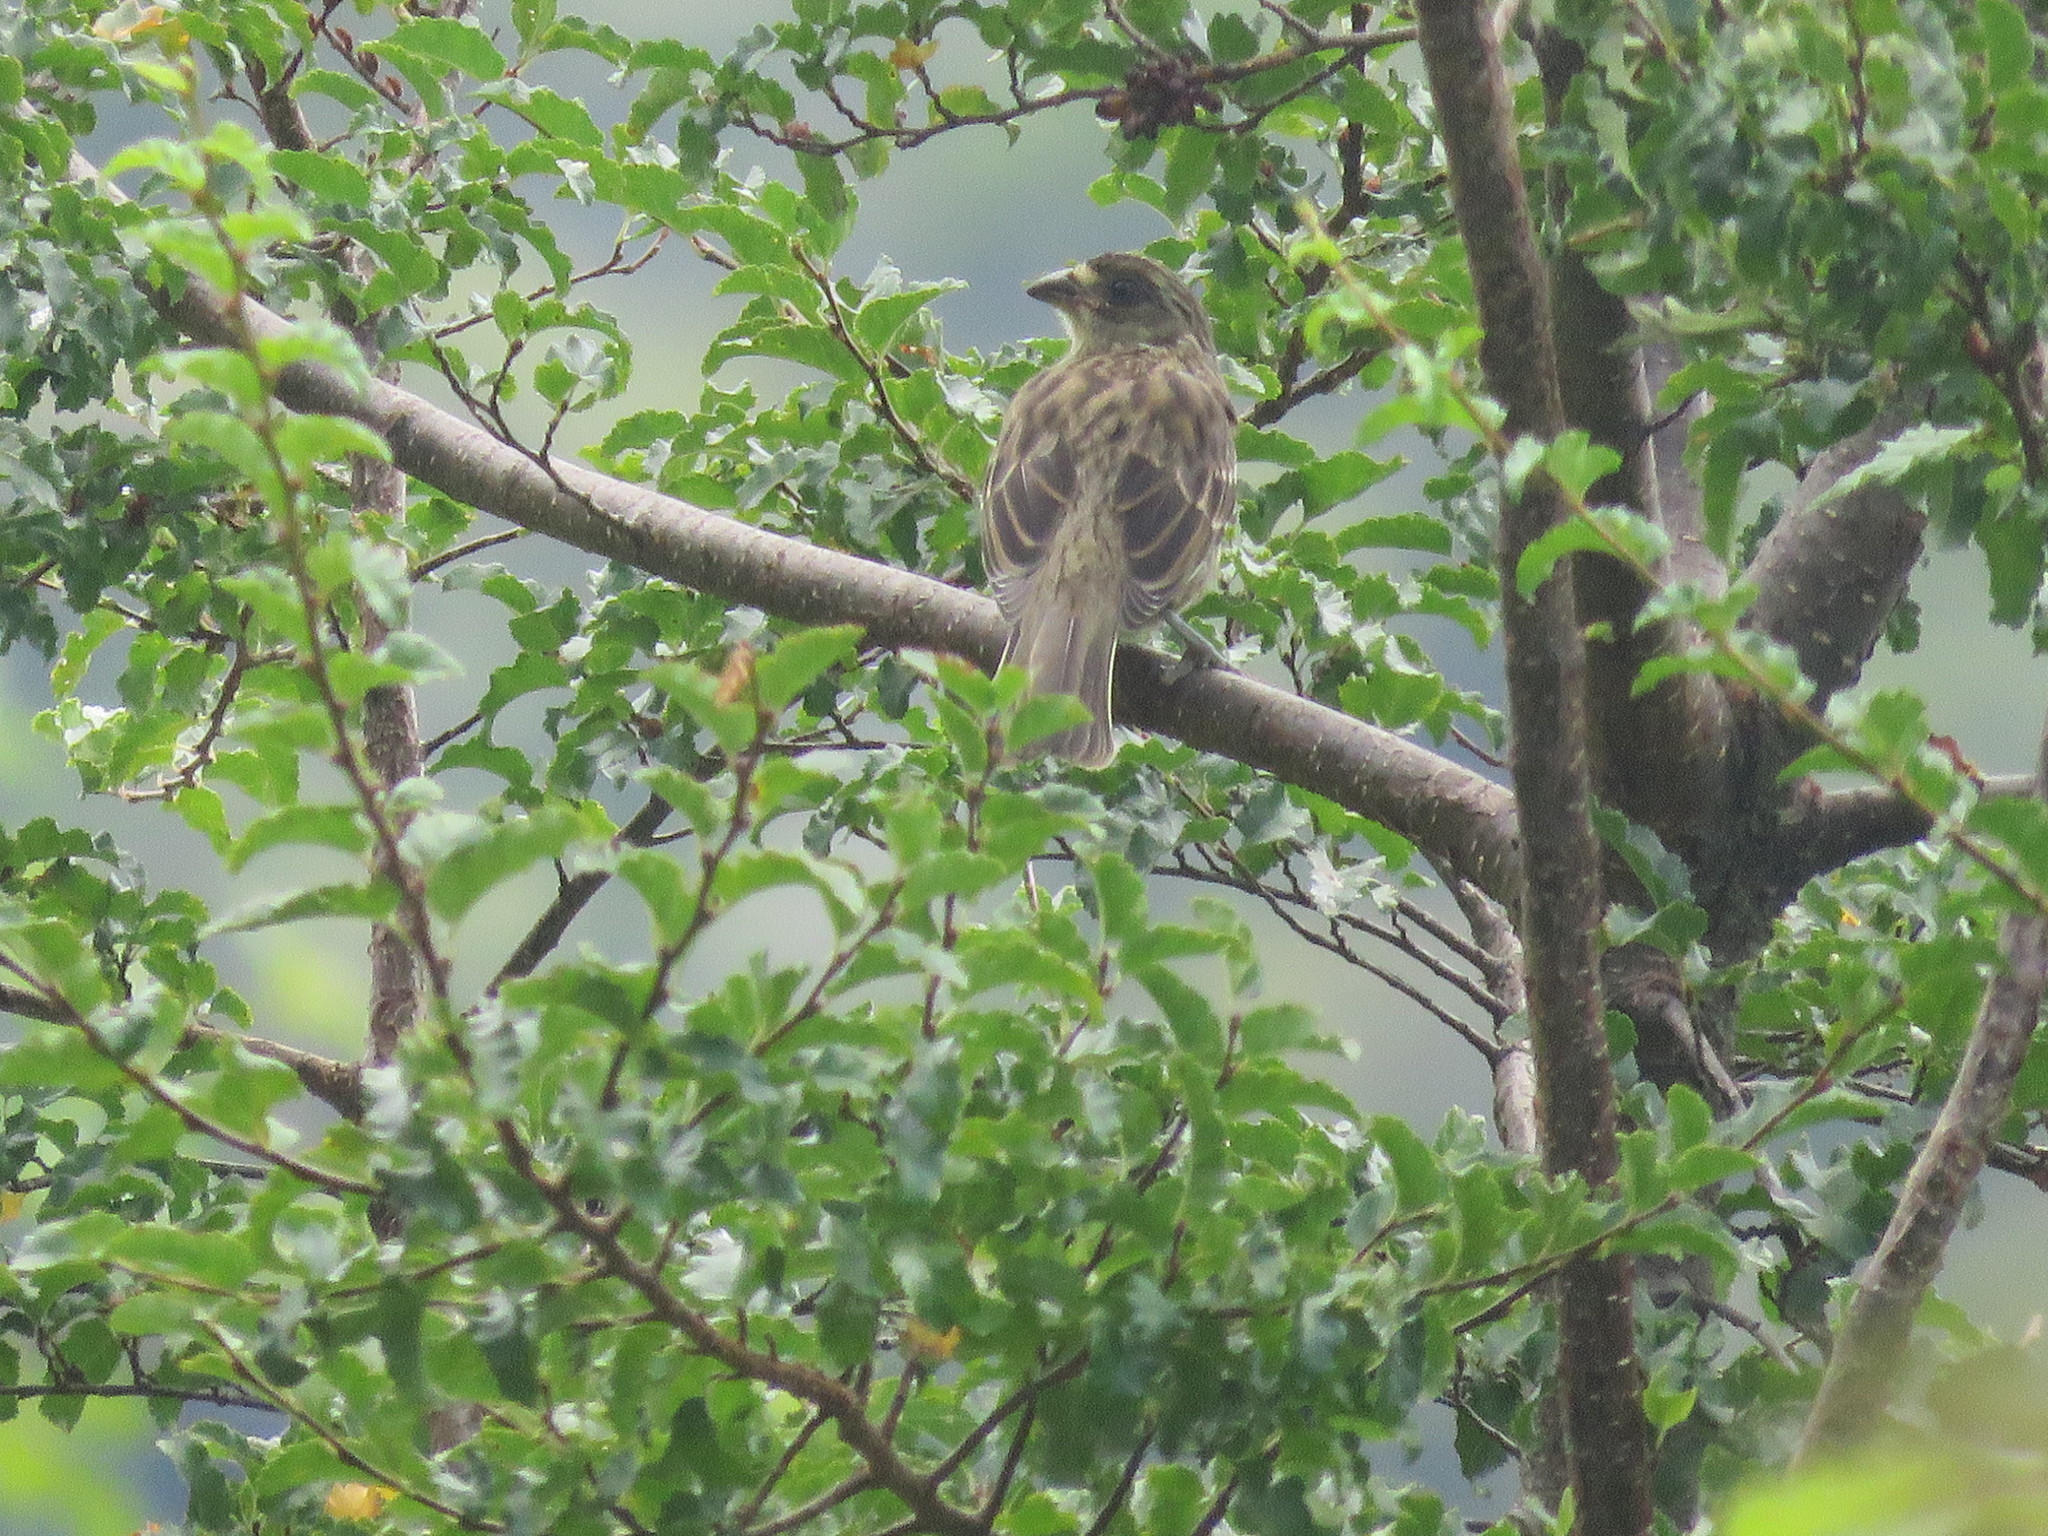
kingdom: Animalia
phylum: Chordata
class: Aves
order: Passeriformes
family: Cotingidae
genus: Phytotoma
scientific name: Phytotoma rara
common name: Rufous-tailed plantcutter
